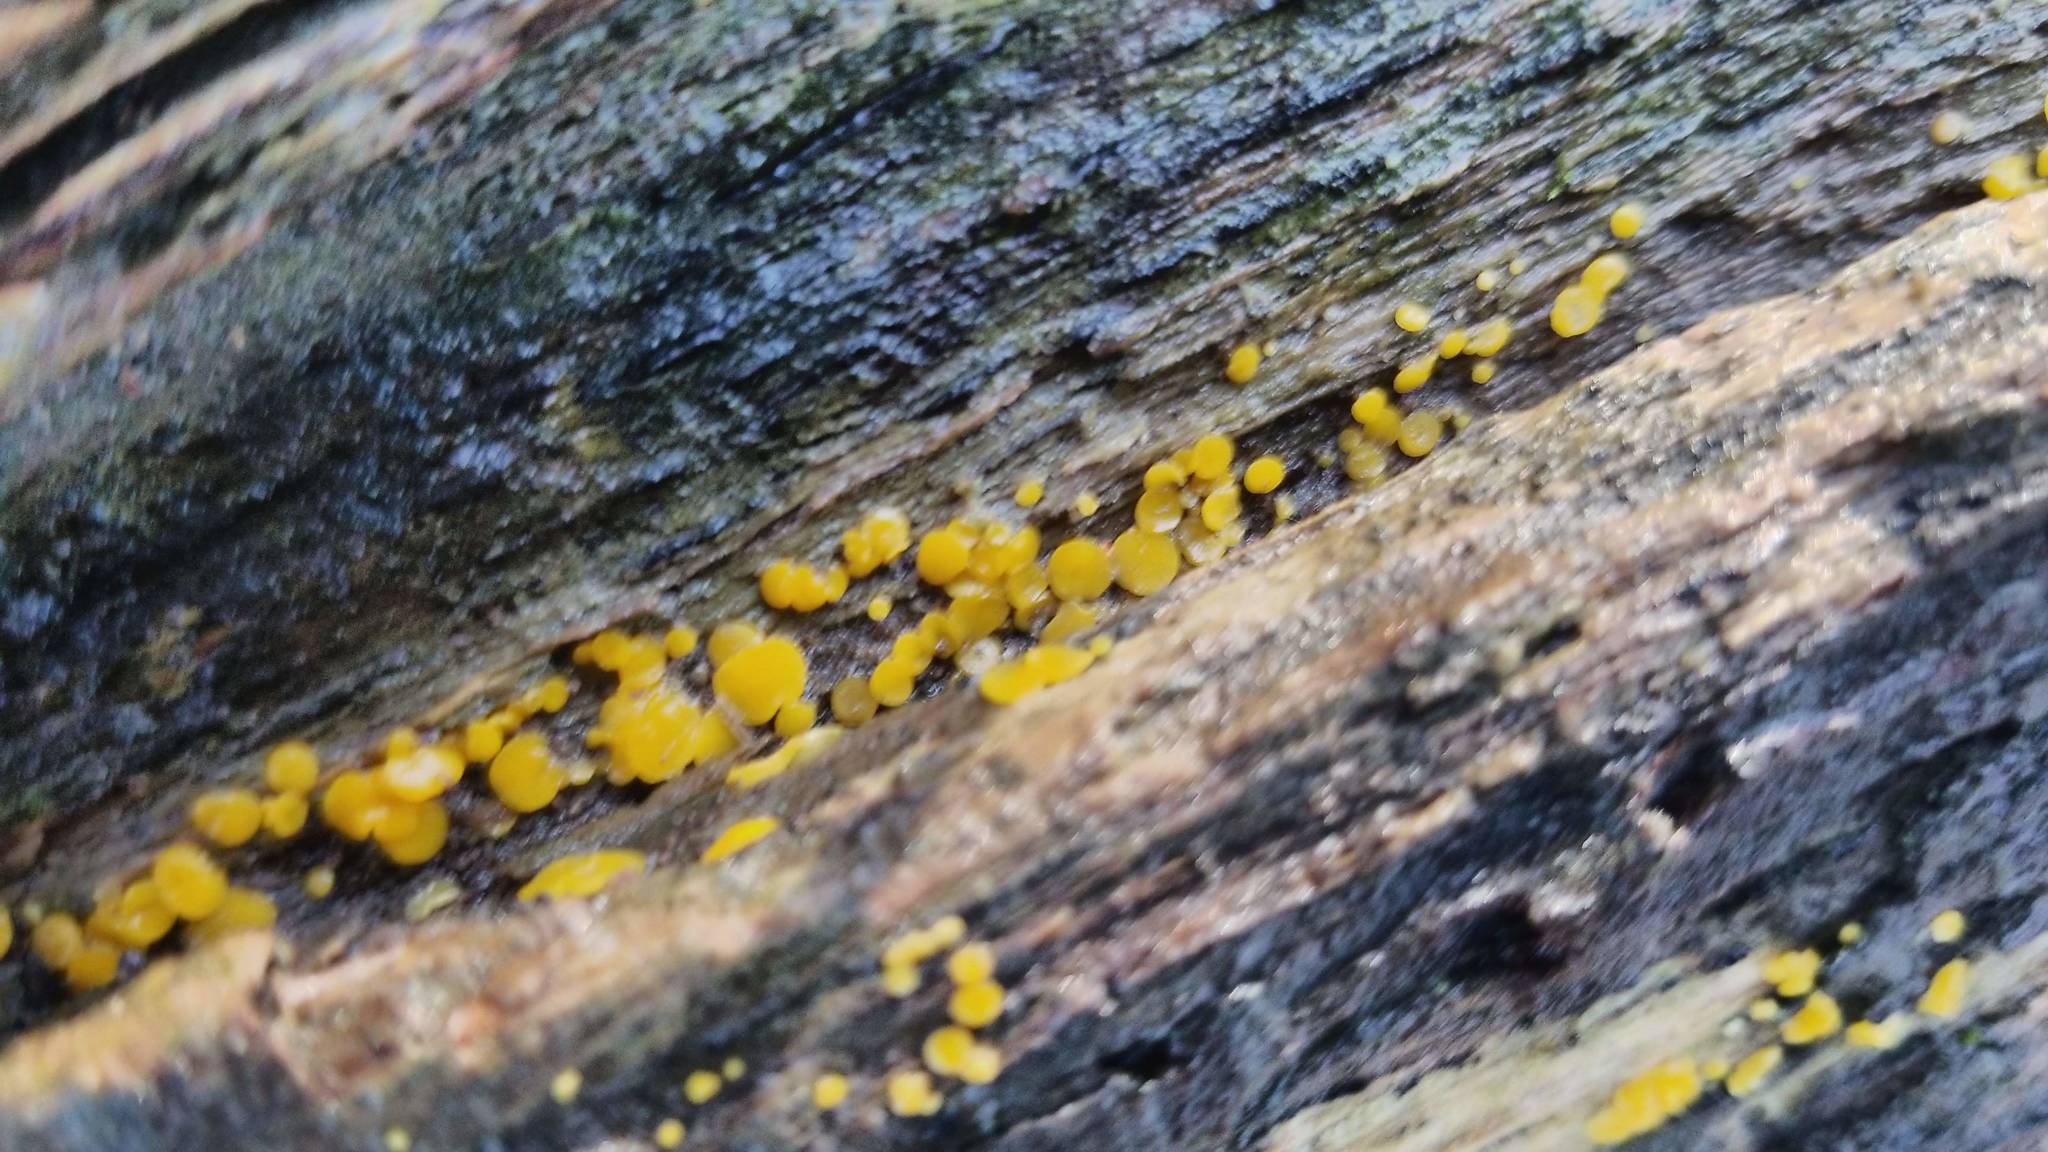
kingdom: Fungi
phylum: Ascomycota
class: Leotiomycetes
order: Helotiales
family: Pezizellaceae
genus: Calycina
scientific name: Calycina citrina
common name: Yellow fairy cups
